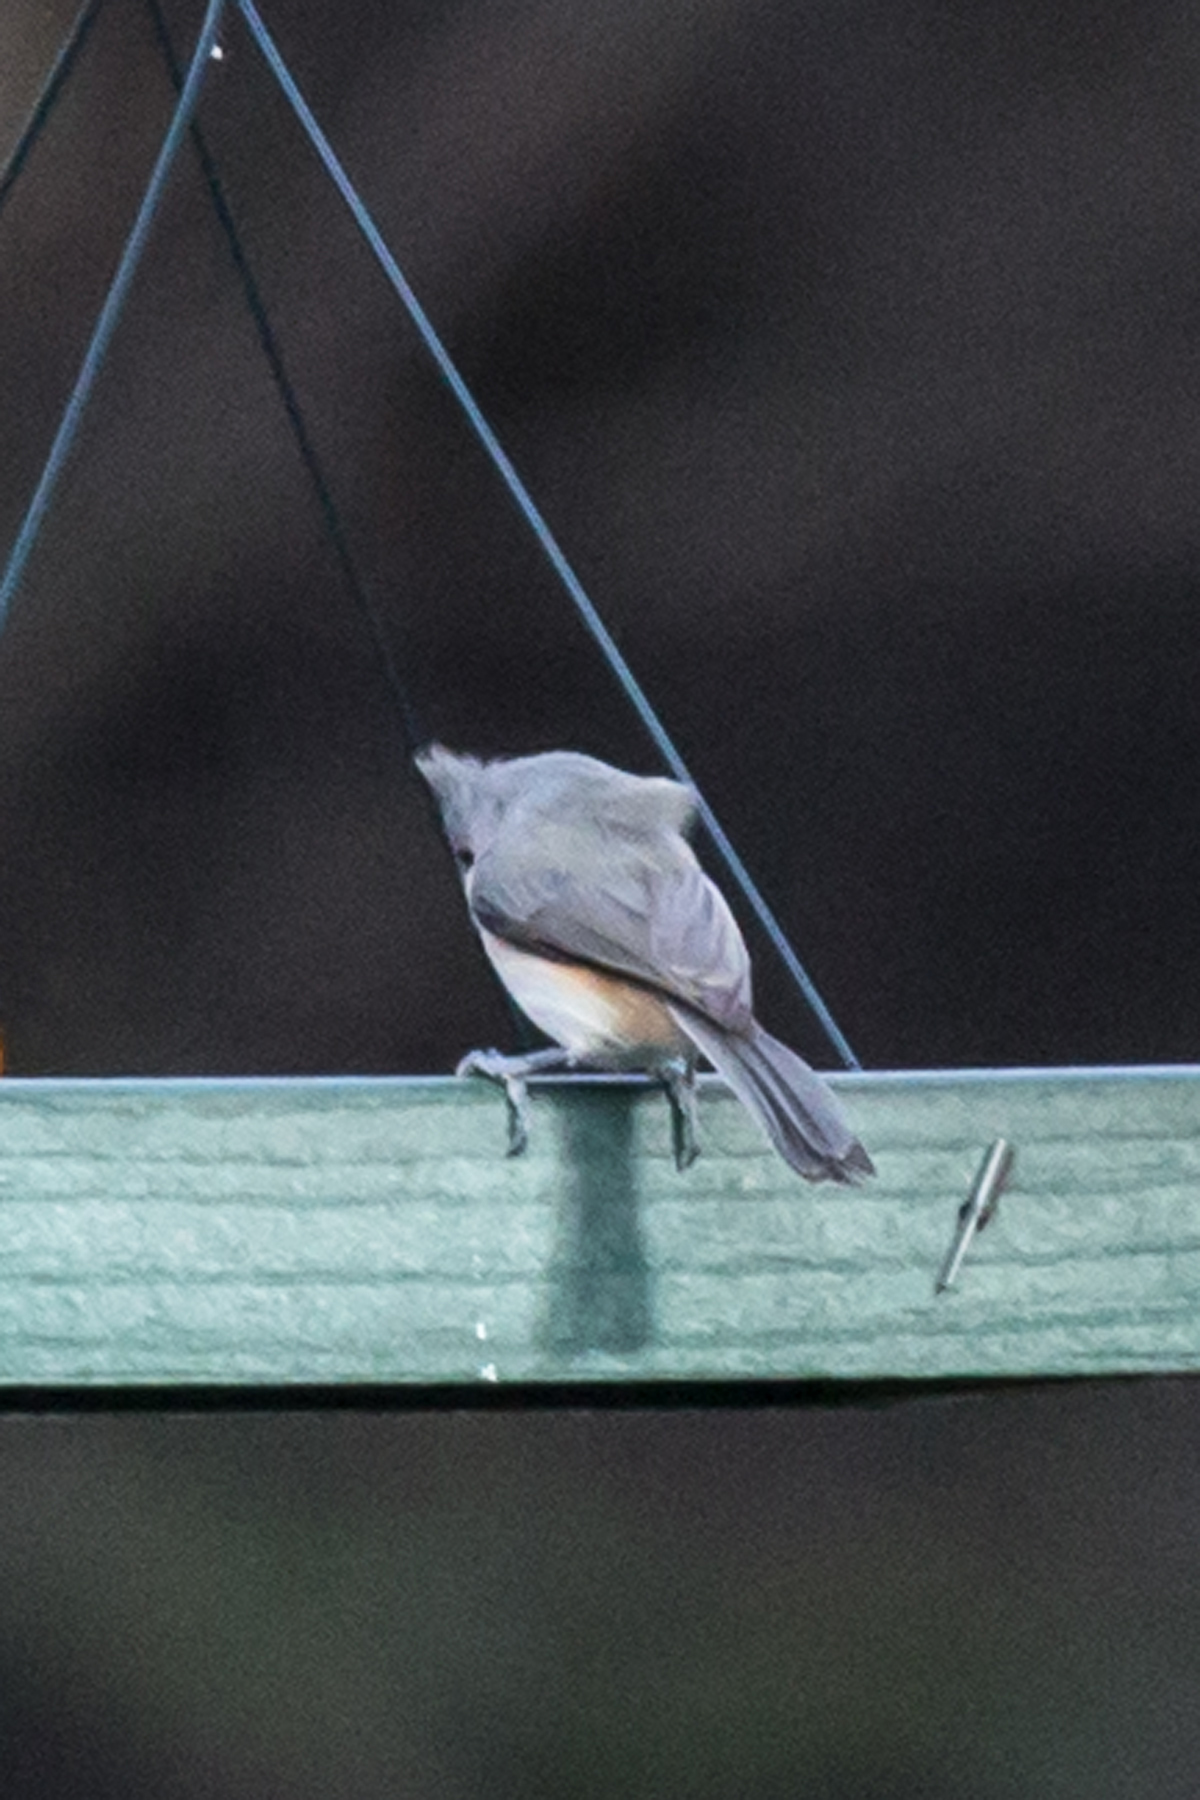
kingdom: Animalia
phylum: Chordata
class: Aves
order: Passeriformes
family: Paridae
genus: Baeolophus
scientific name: Baeolophus bicolor
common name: Tufted titmouse
